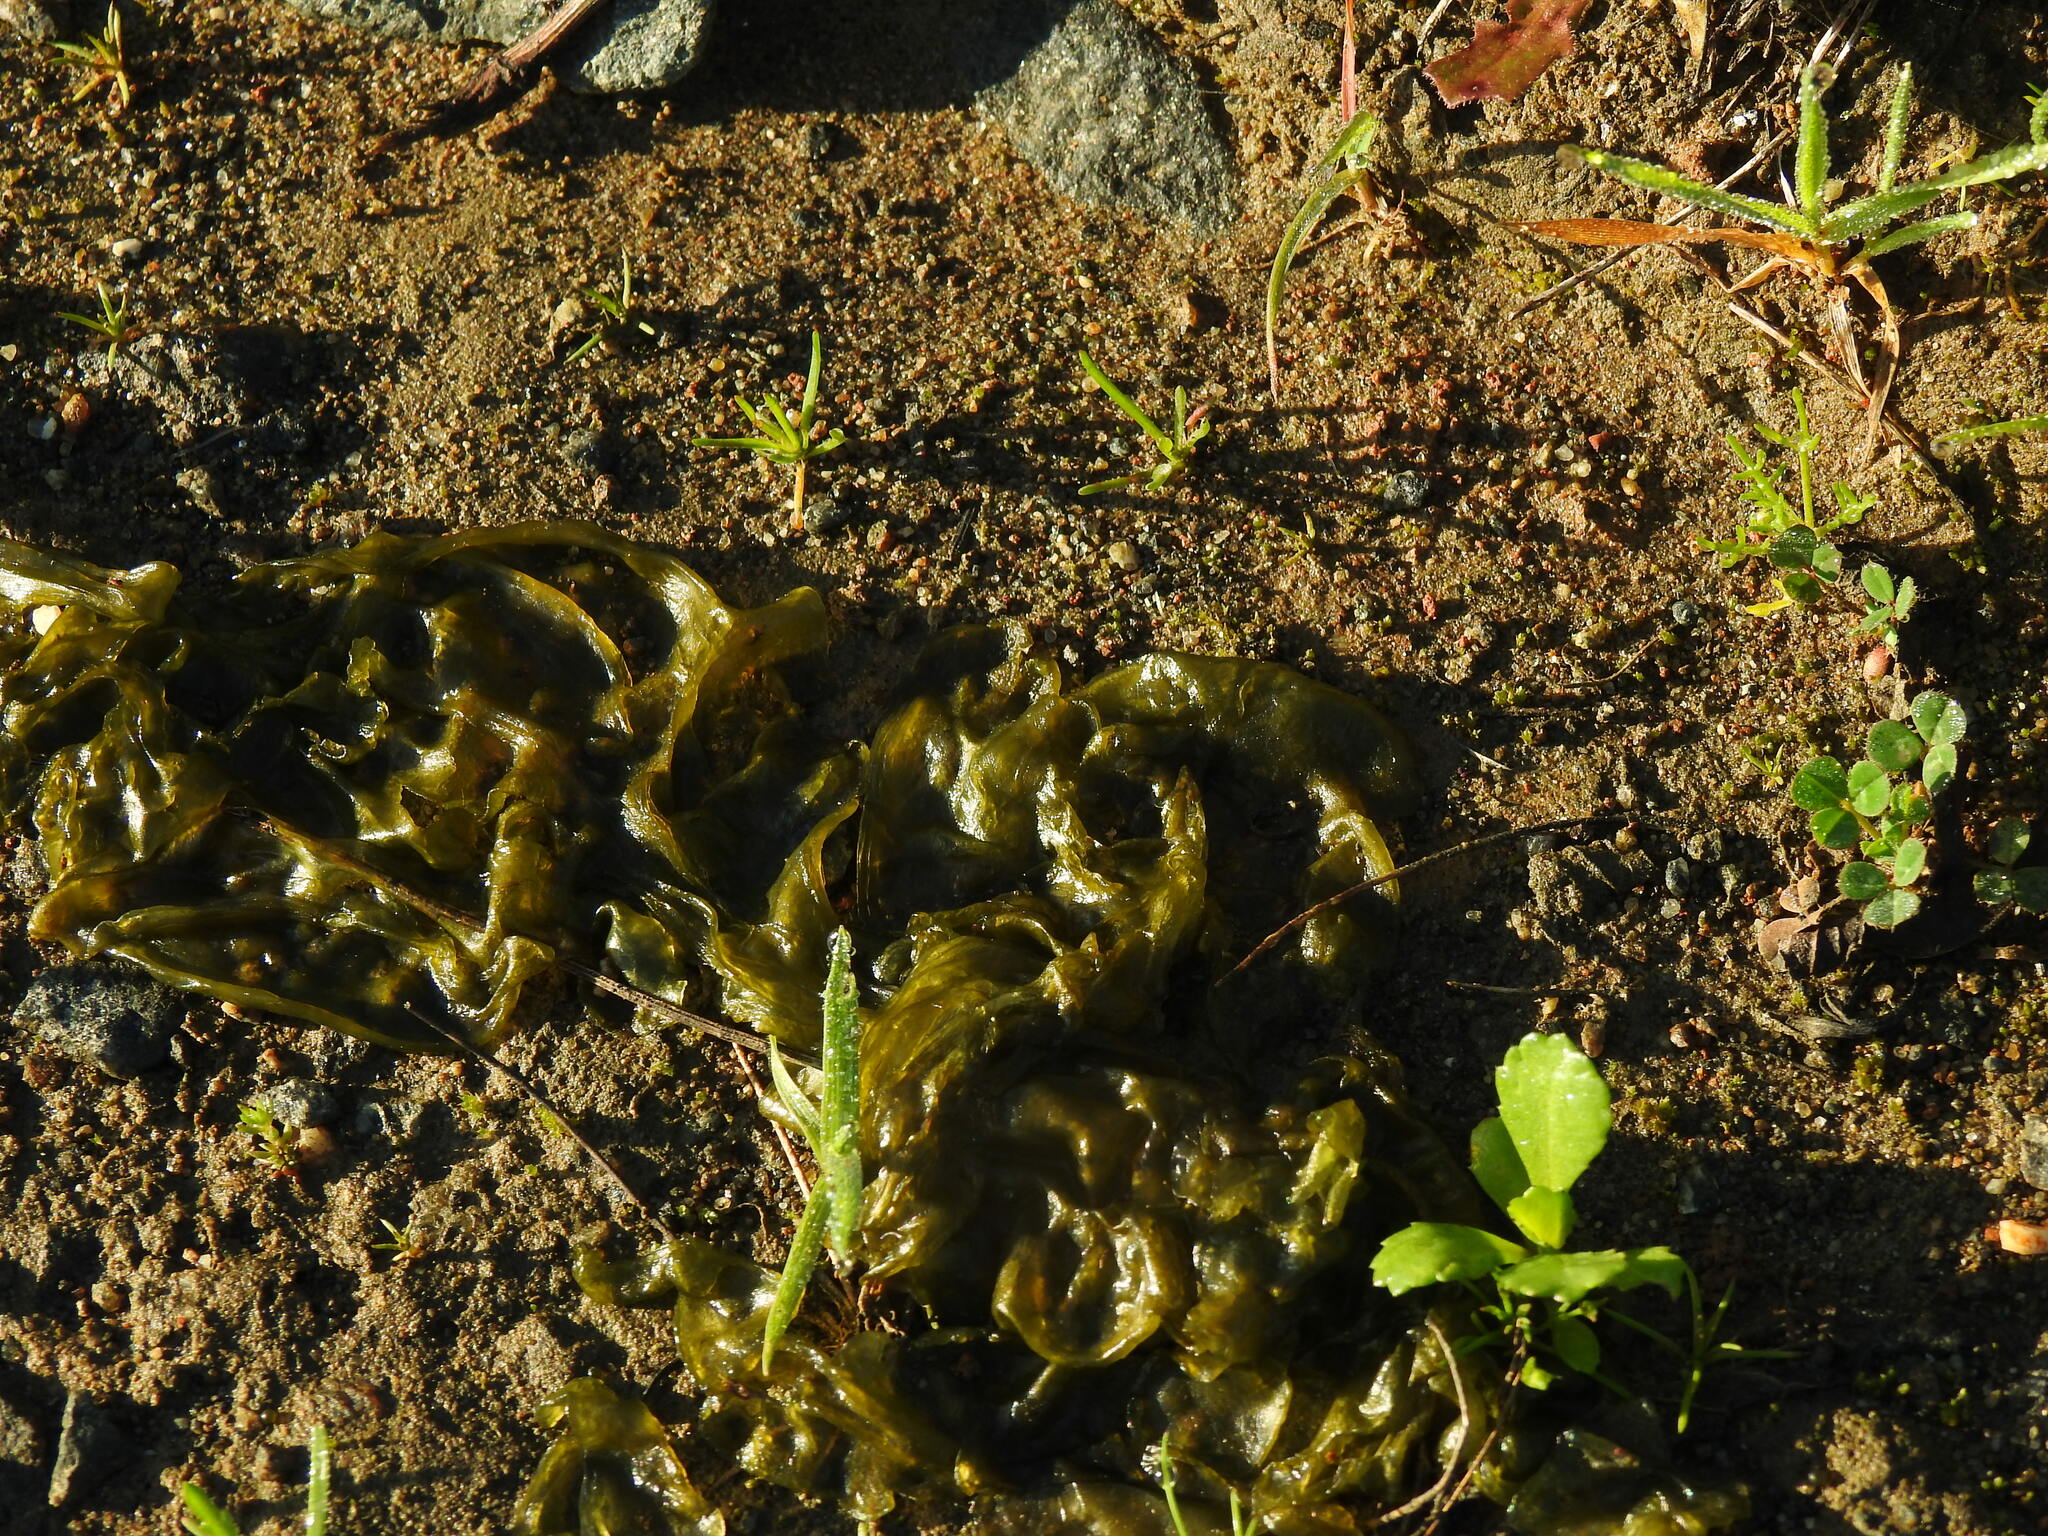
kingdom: Bacteria
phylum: Cyanobacteria
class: Cyanobacteriia
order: Cyanobacteriales
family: Nostocaceae
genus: Nostoc
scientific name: Nostoc commune
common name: Star jelly
